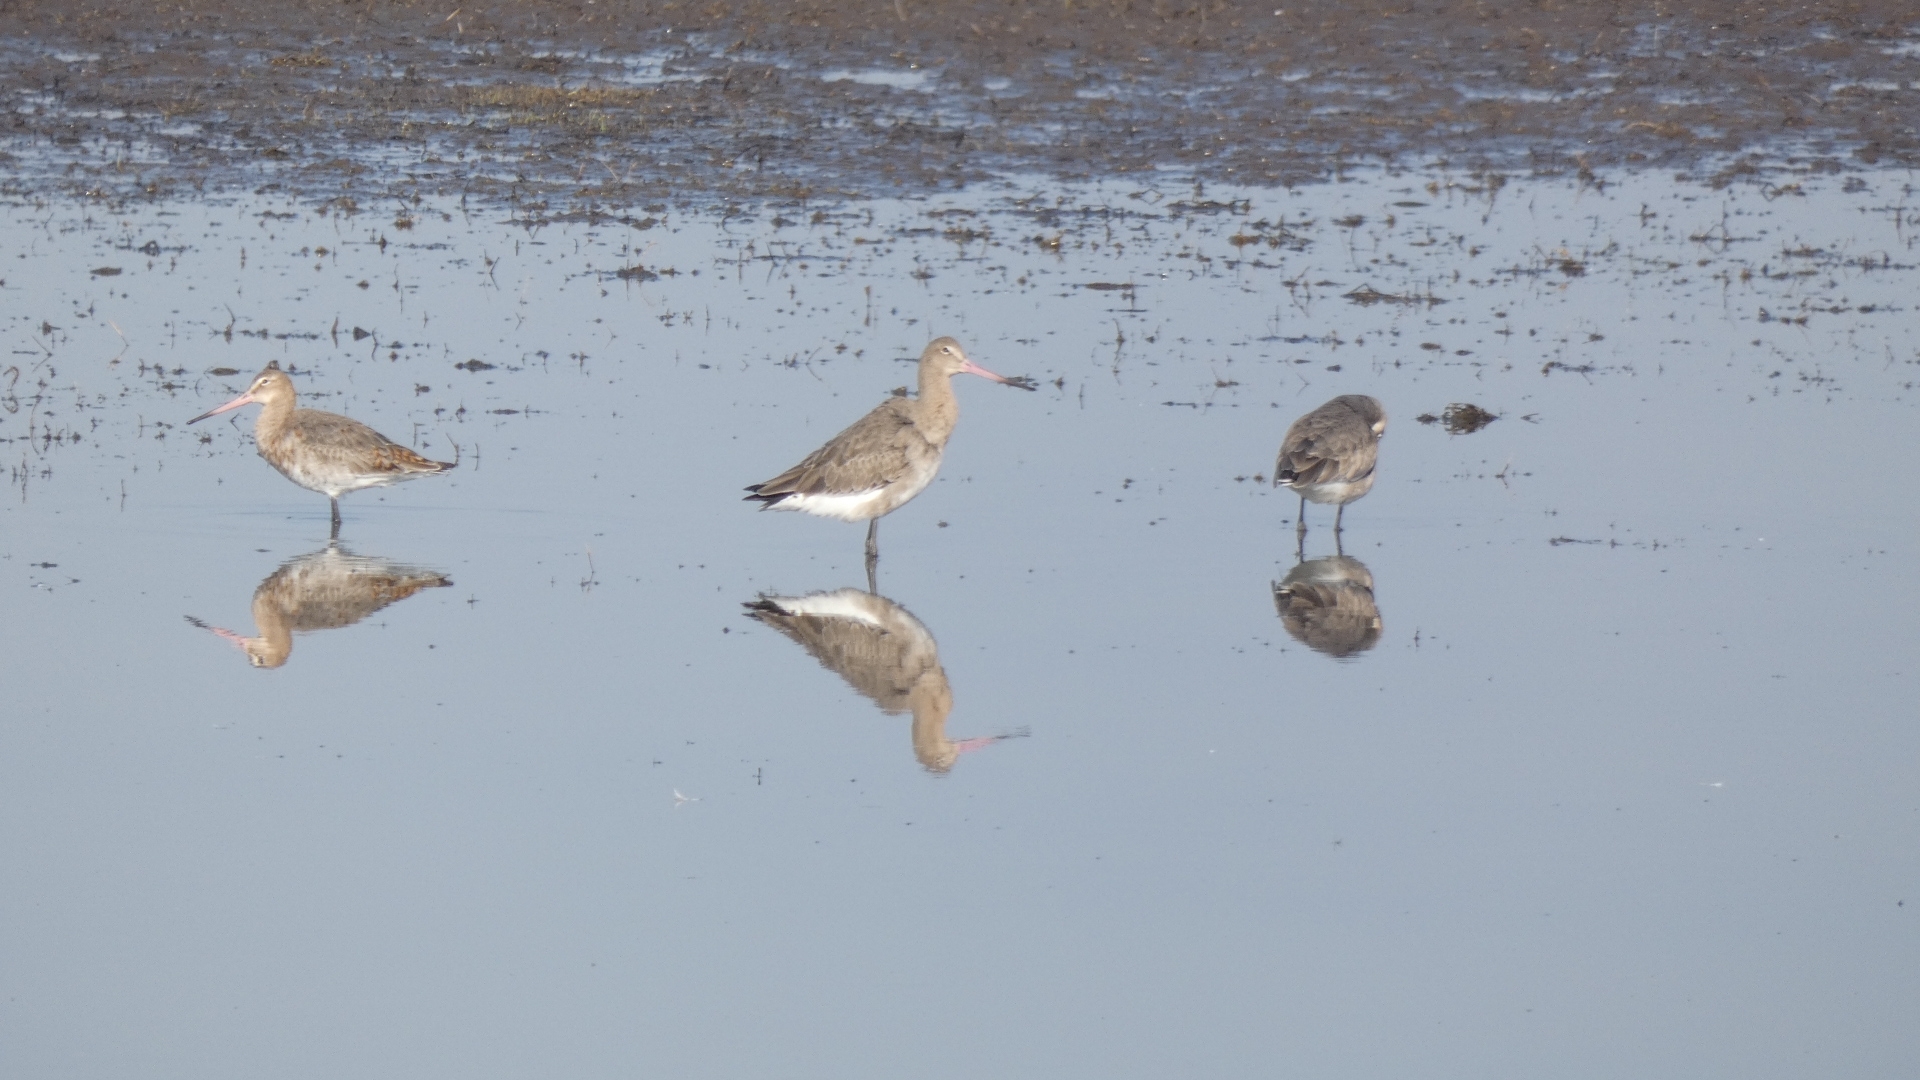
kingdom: Animalia
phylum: Chordata
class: Aves
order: Charadriiformes
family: Scolopacidae
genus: Limosa
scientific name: Limosa limosa
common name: Black-tailed godwit
